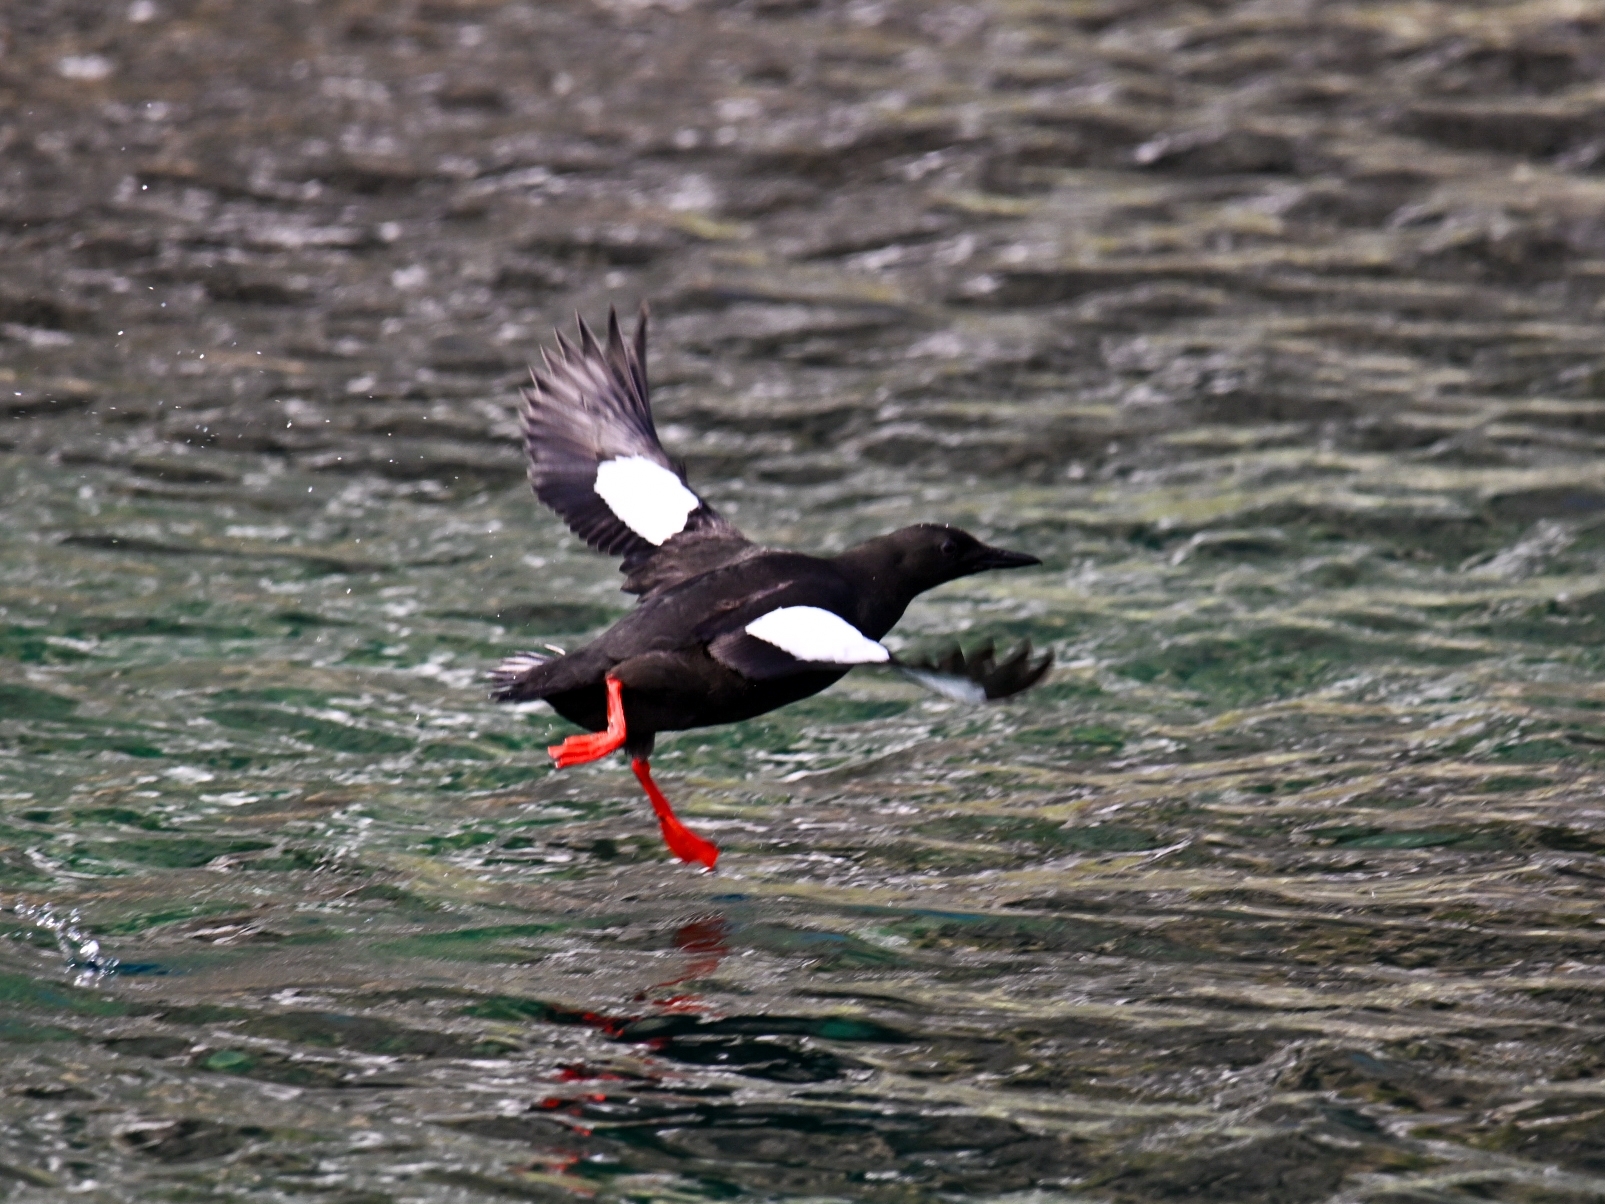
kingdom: Animalia
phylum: Chordata
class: Aves
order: Charadriiformes
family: Alcidae
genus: Cepphus
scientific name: Cepphus grylle
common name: Black guillemot
